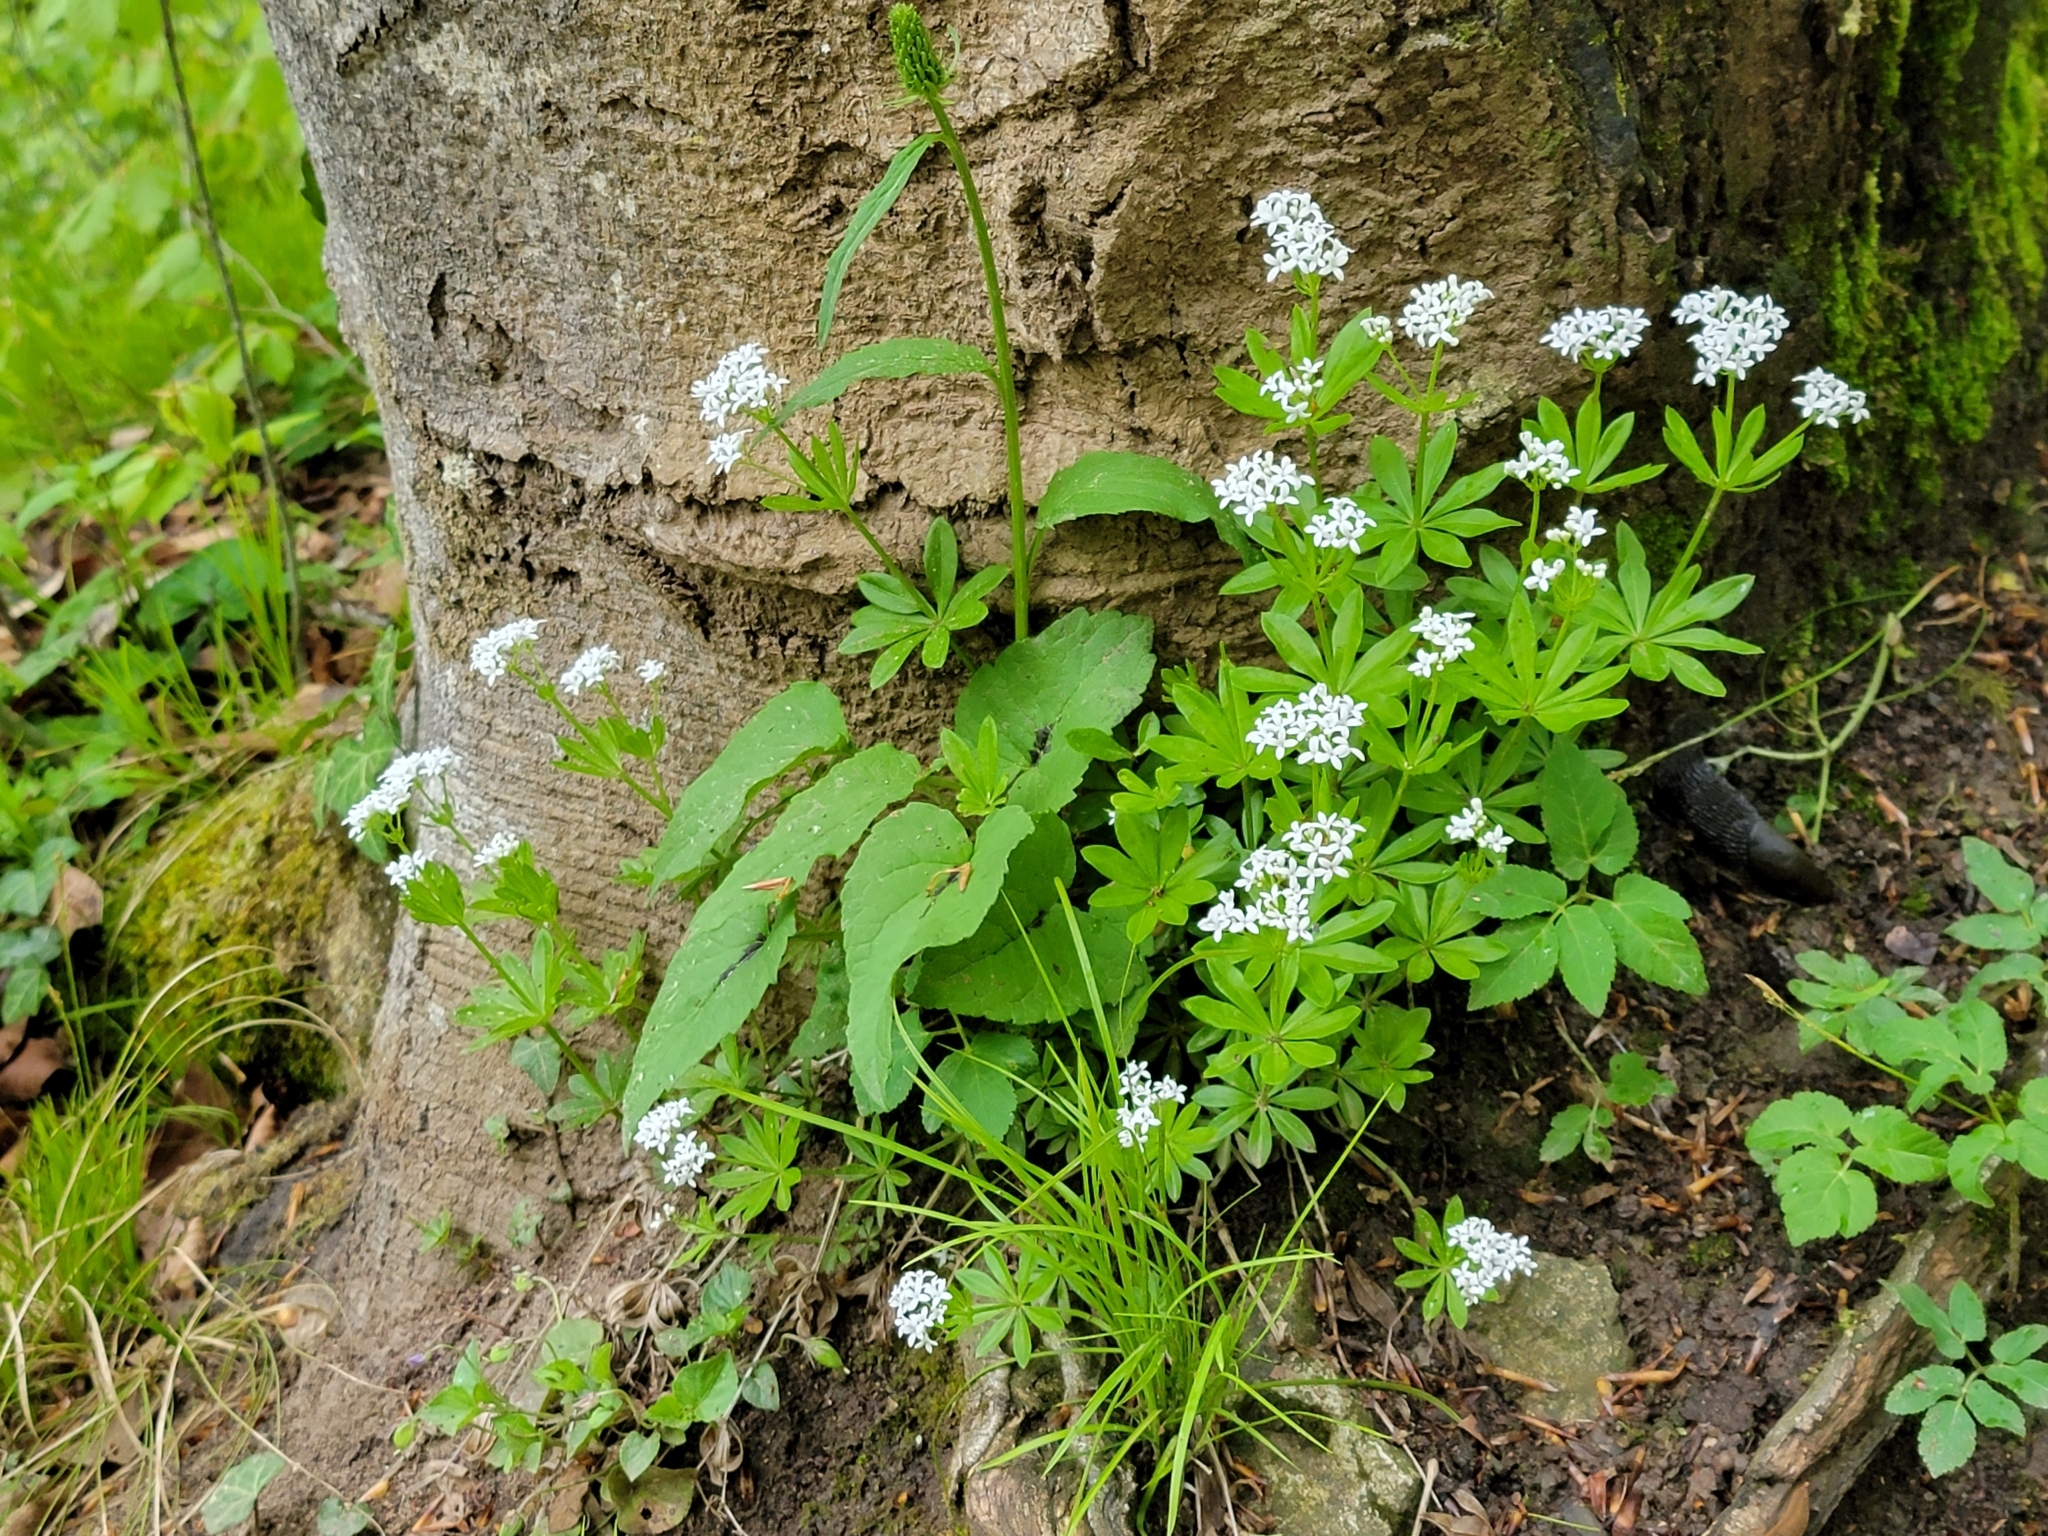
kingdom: Plantae
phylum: Tracheophyta
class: Magnoliopsida
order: Gentianales
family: Rubiaceae
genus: Galium
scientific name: Galium odoratum
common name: Sweet woodruff
